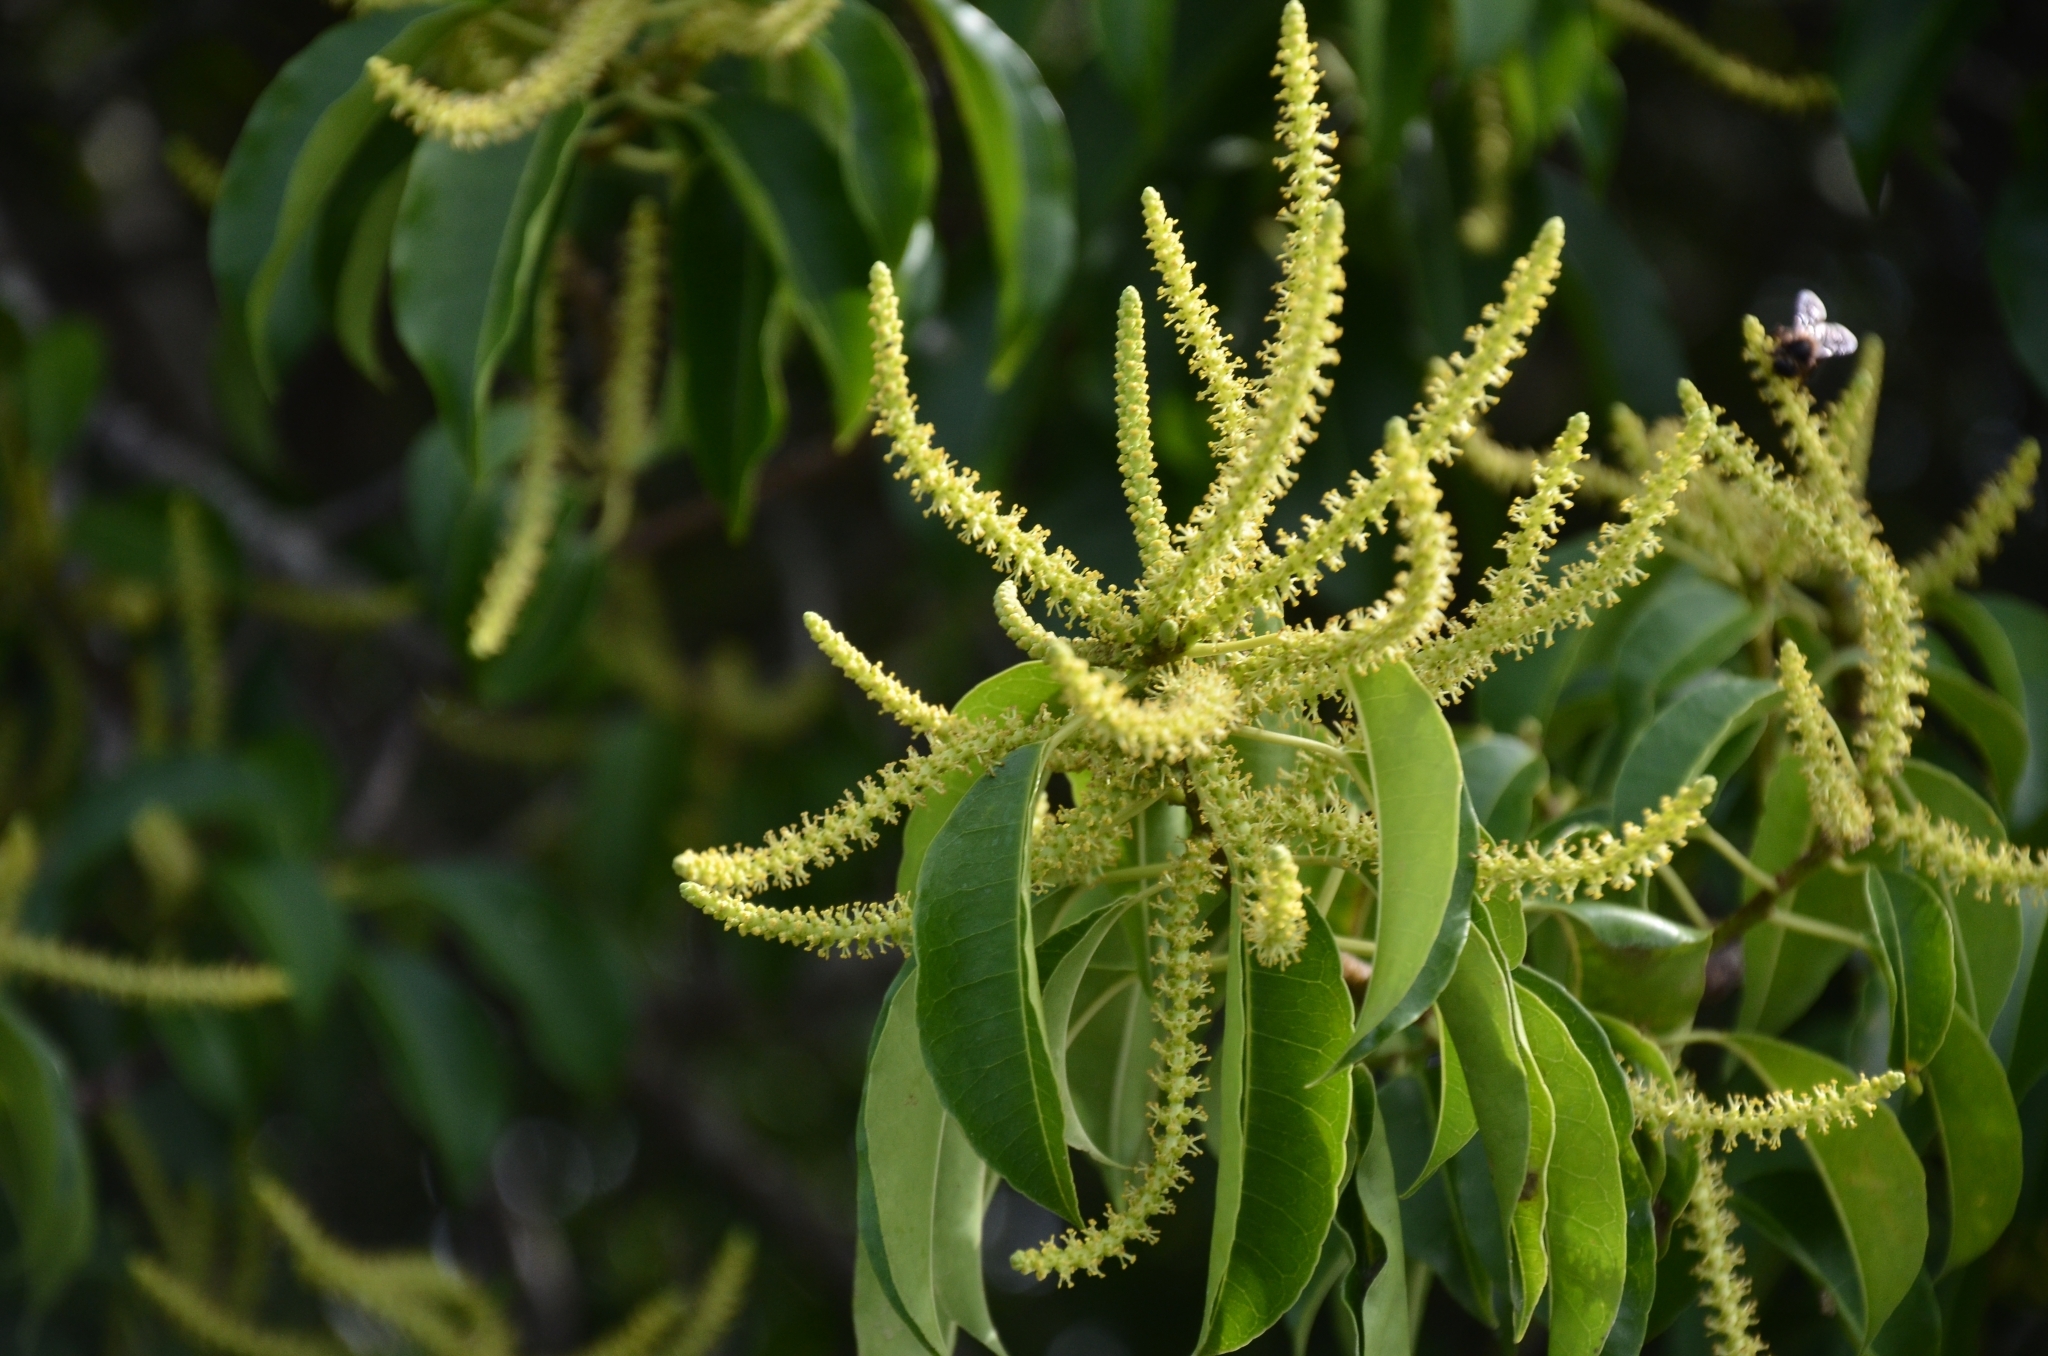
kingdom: Plantae
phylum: Tracheophyta
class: Magnoliopsida
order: Malpighiales
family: Euphorbiaceae
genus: Excoecaria
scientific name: Excoecaria agallocha
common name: River poisontree
